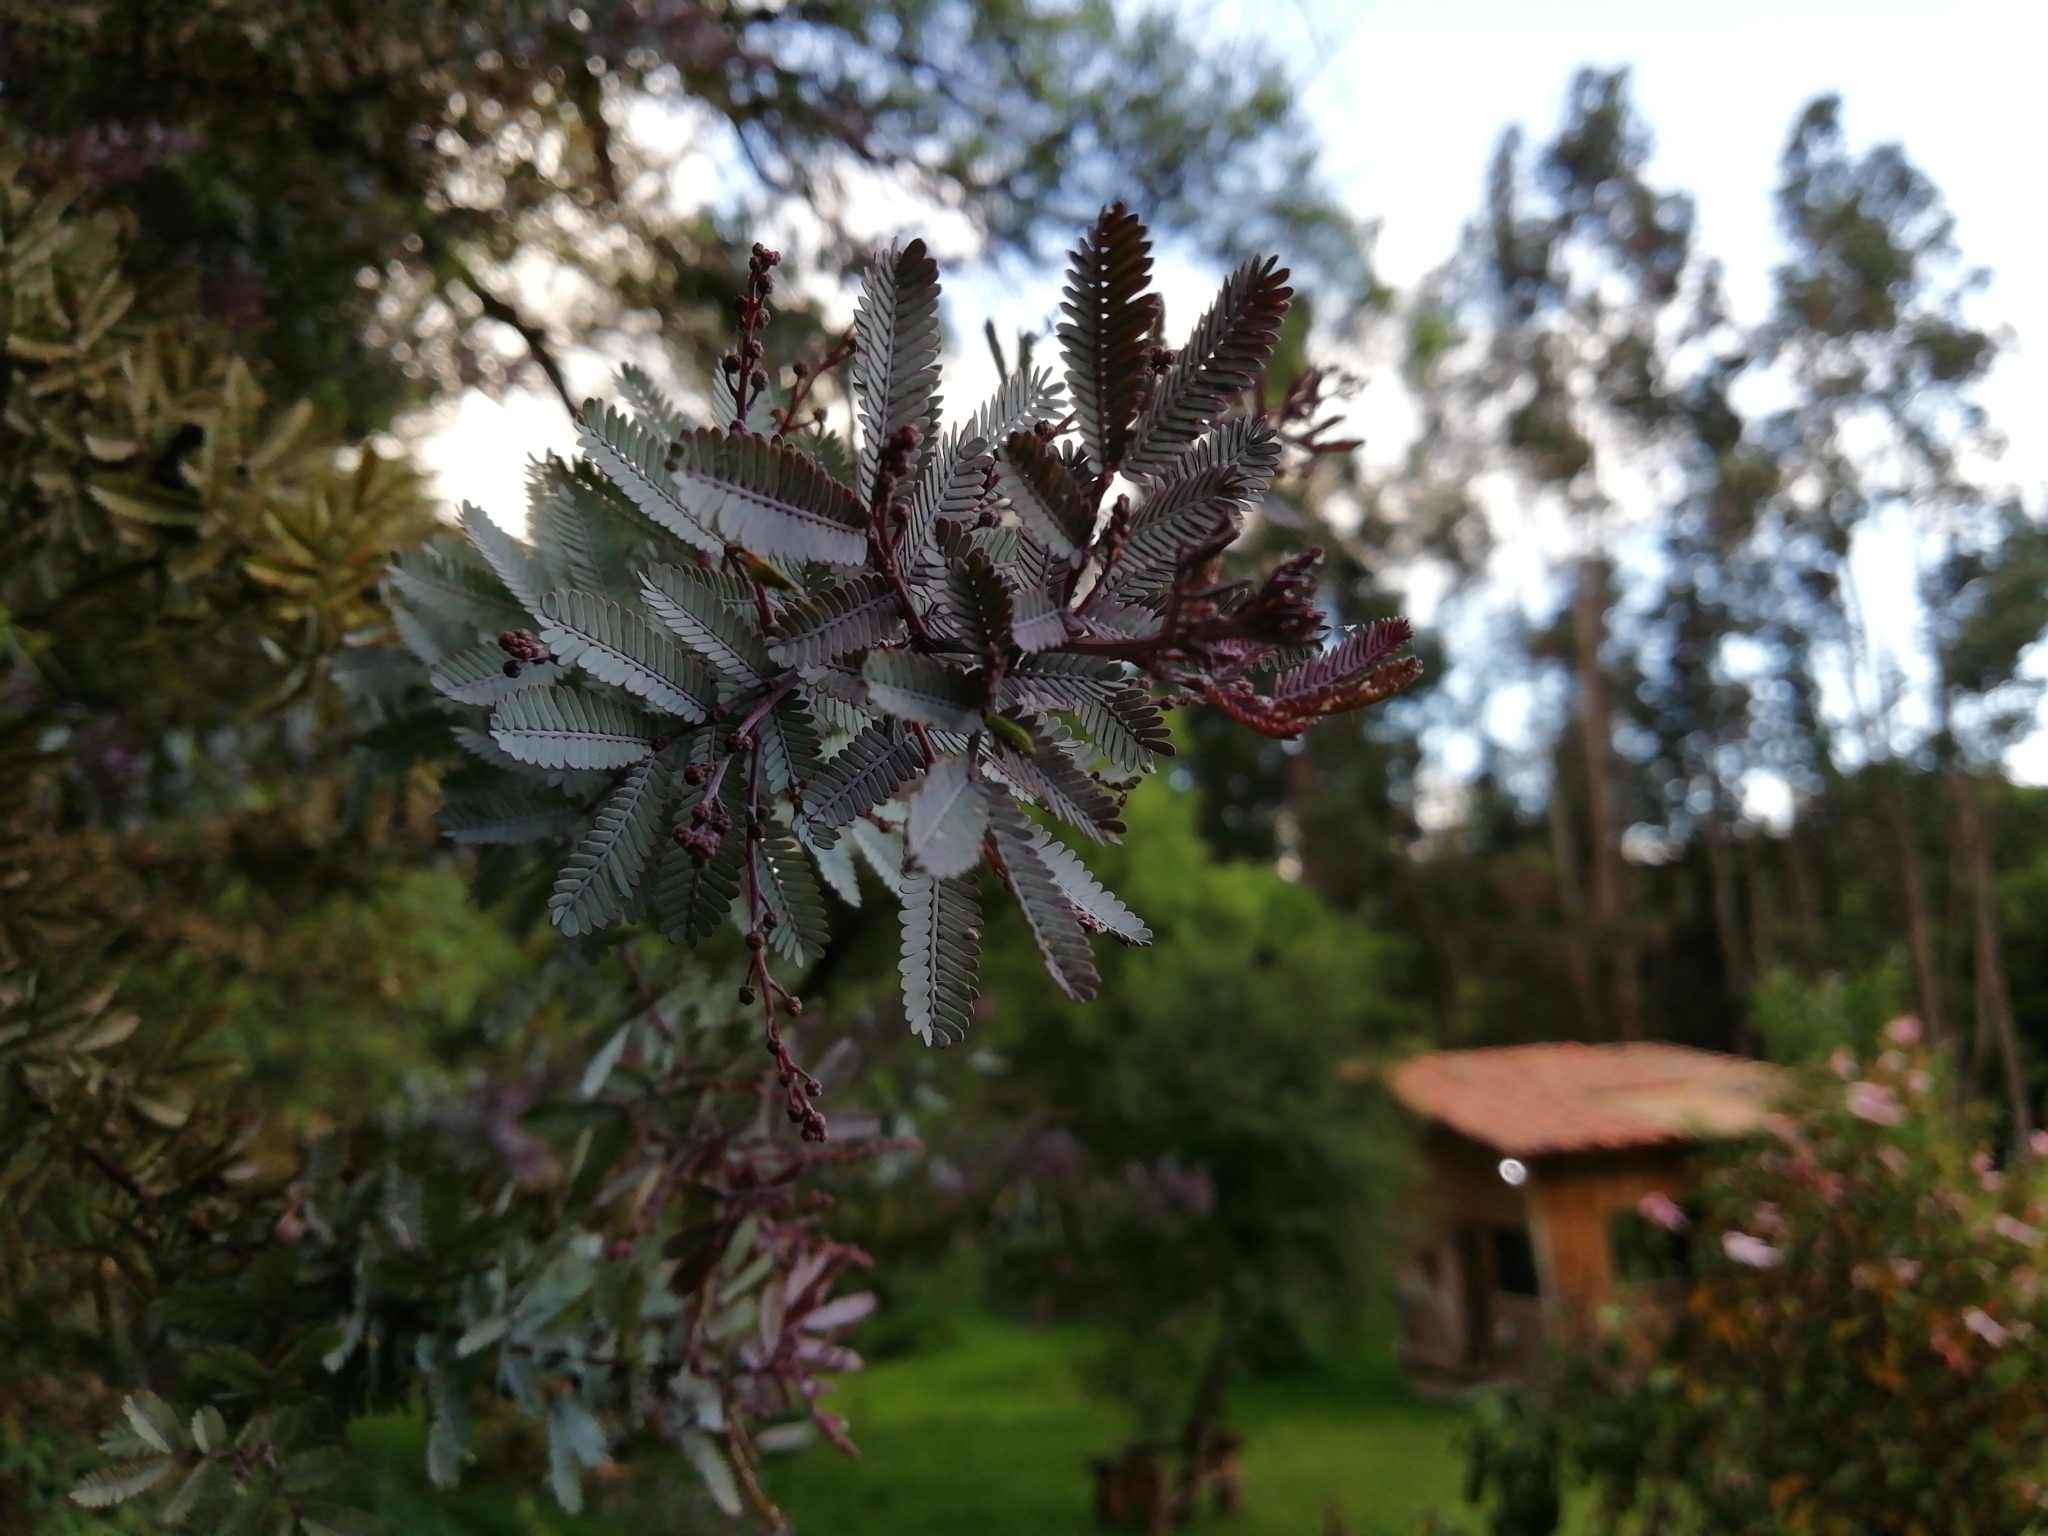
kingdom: Plantae
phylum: Tracheophyta
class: Magnoliopsida
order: Fabales
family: Fabaceae
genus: Acacia
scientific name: Acacia baileyana
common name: Cootamundra wattle
